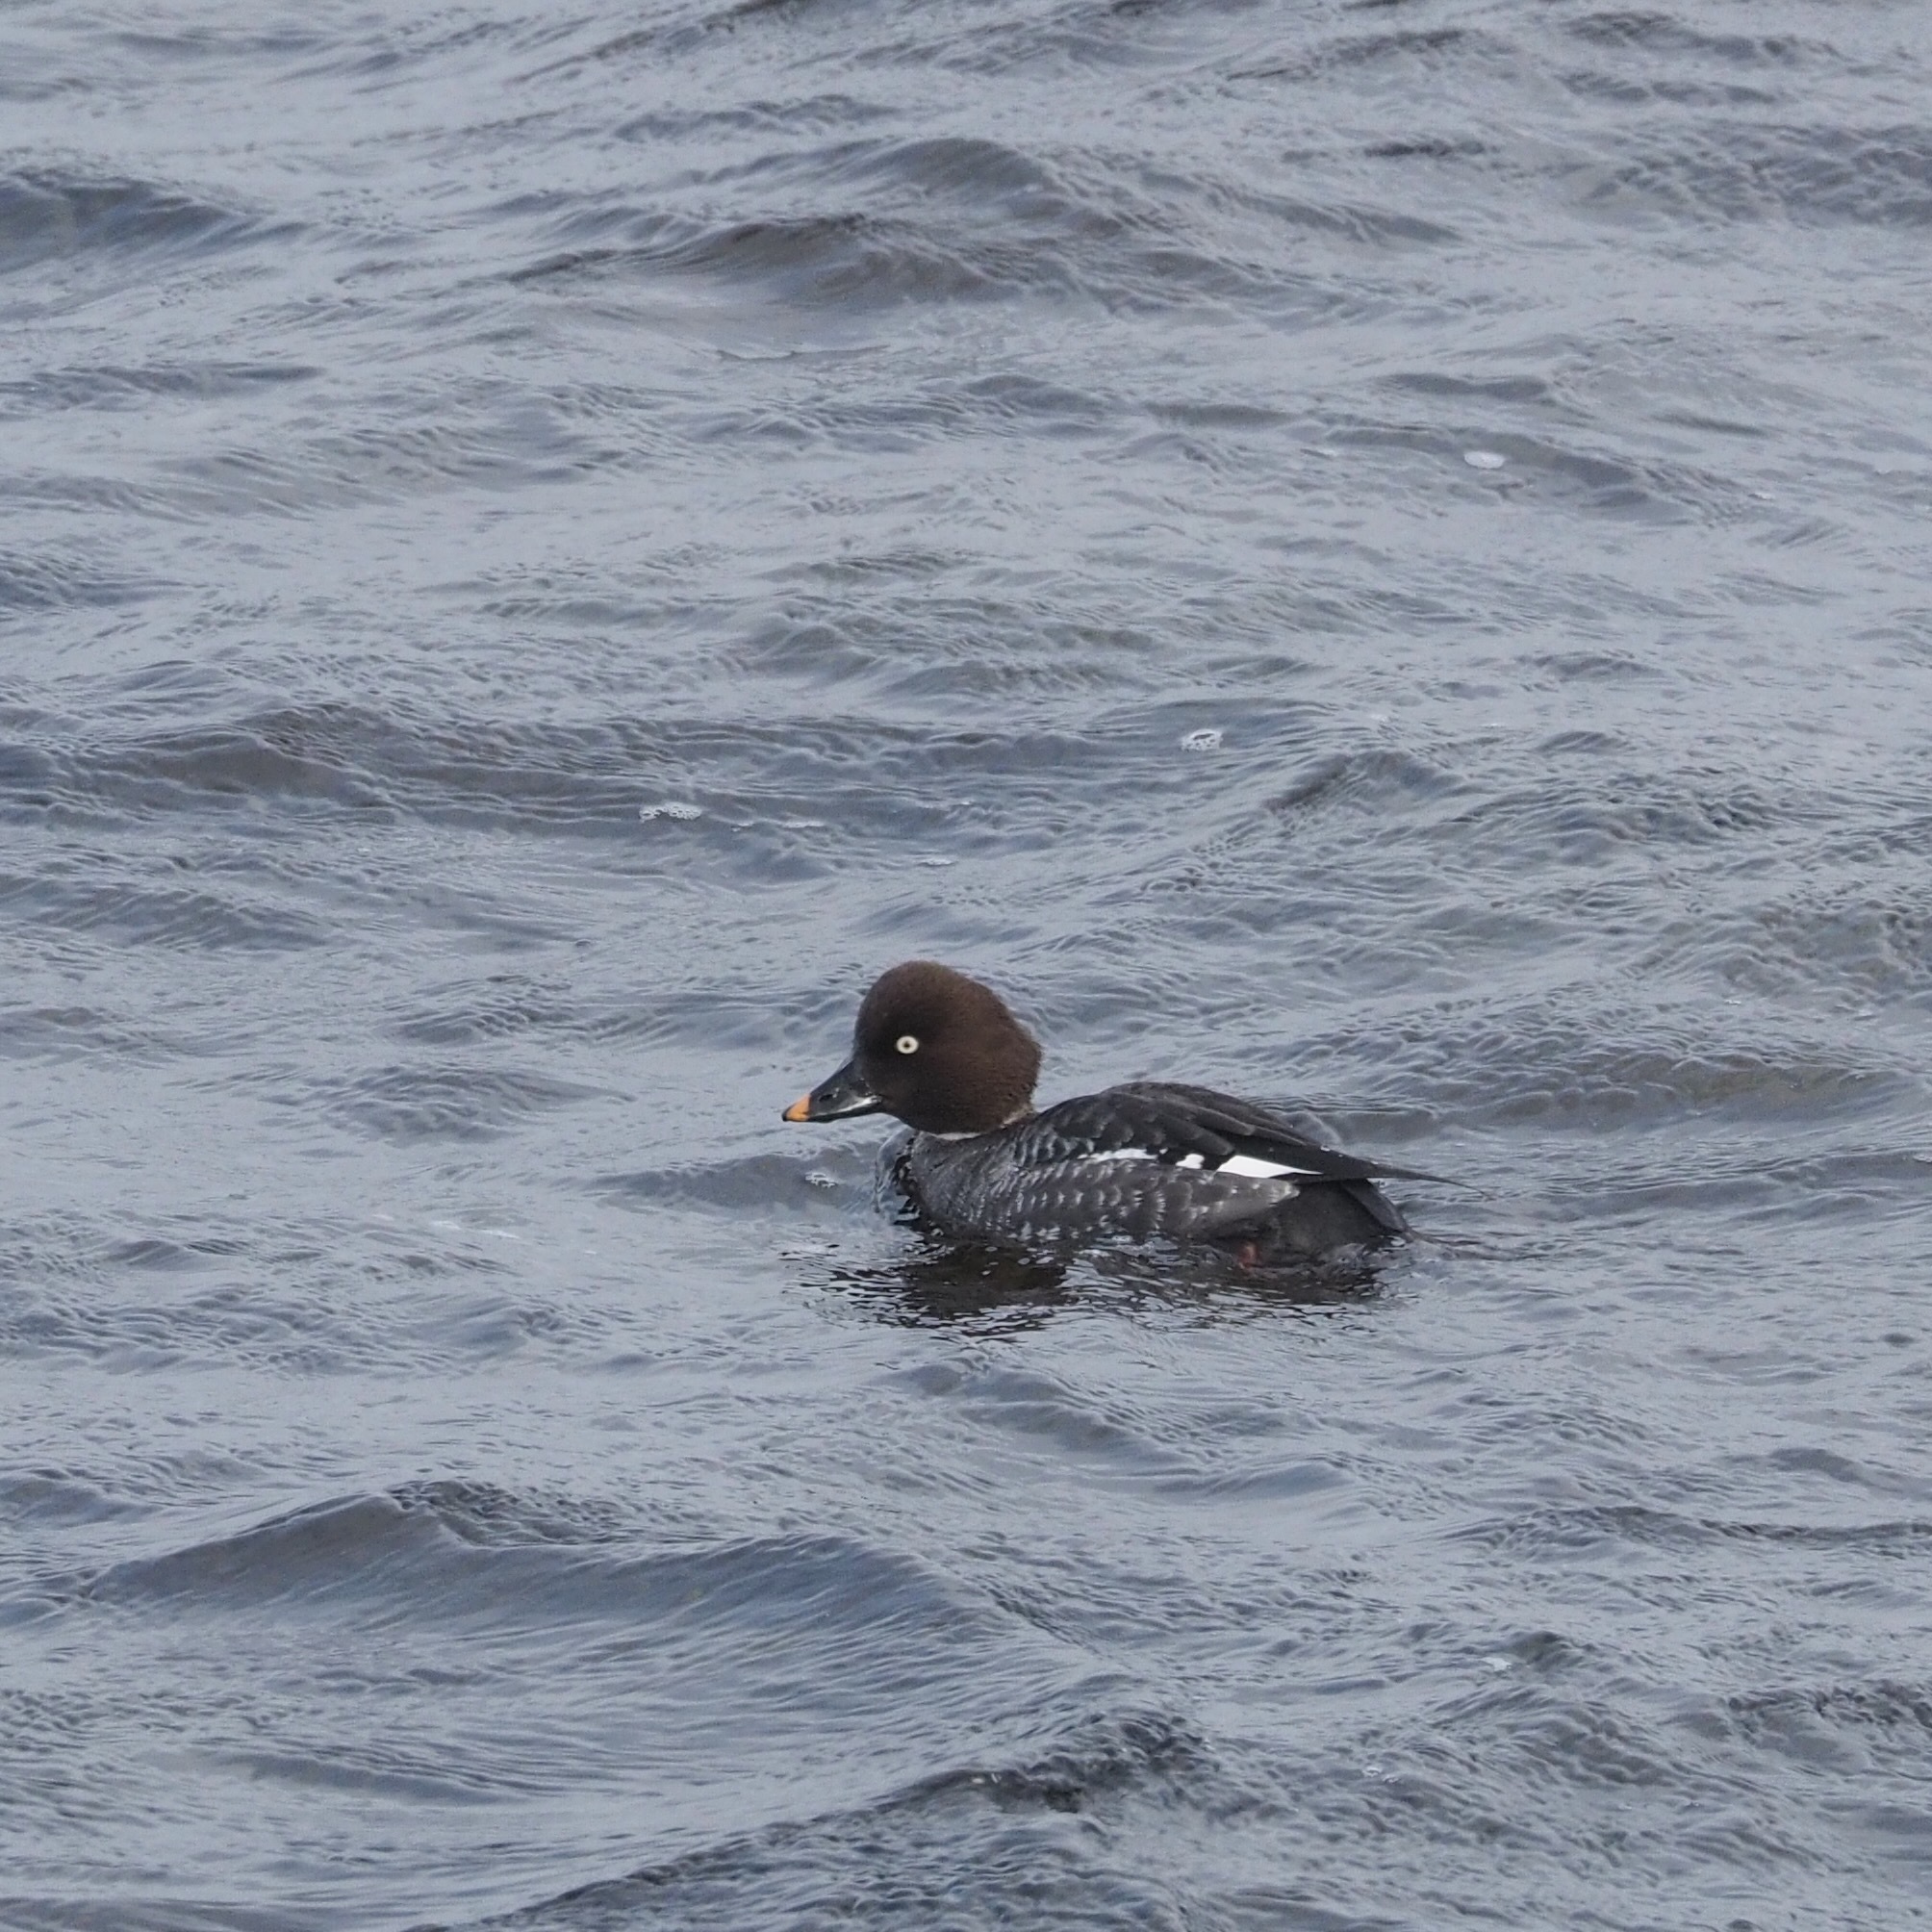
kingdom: Animalia
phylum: Chordata
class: Aves
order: Anseriformes
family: Anatidae
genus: Bucephala
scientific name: Bucephala clangula
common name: Common goldeneye
